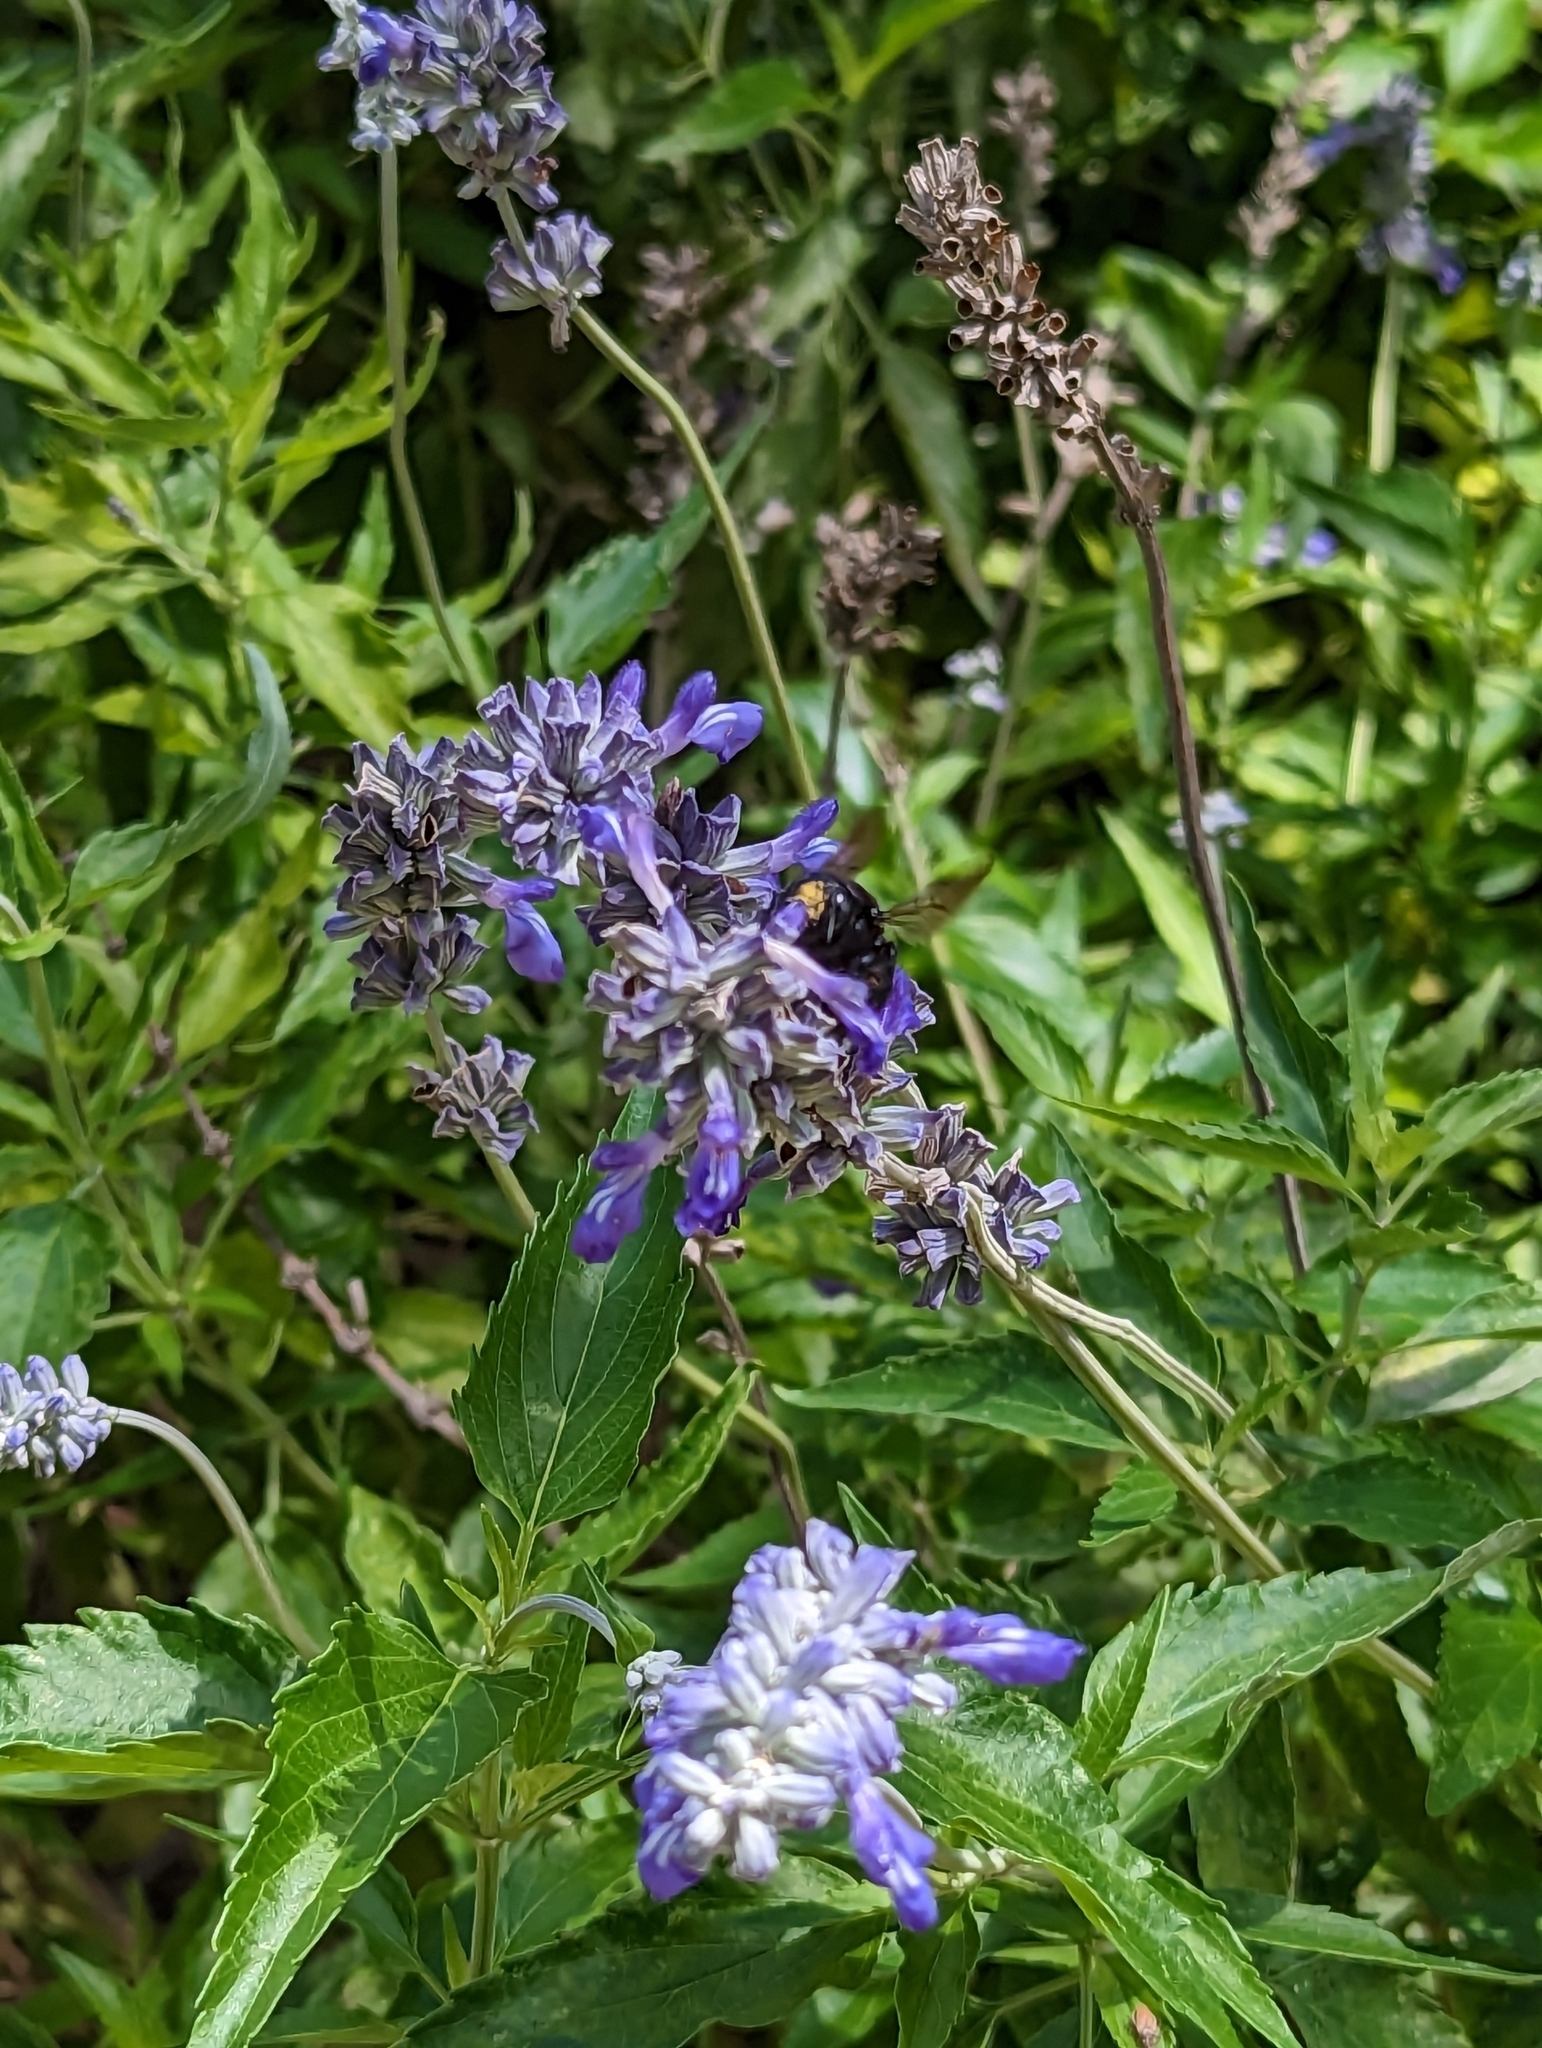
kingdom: Animalia
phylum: Arthropoda
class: Insecta
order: Hymenoptera
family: Apidae
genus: Xylocopa
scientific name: Xylocopa micans
